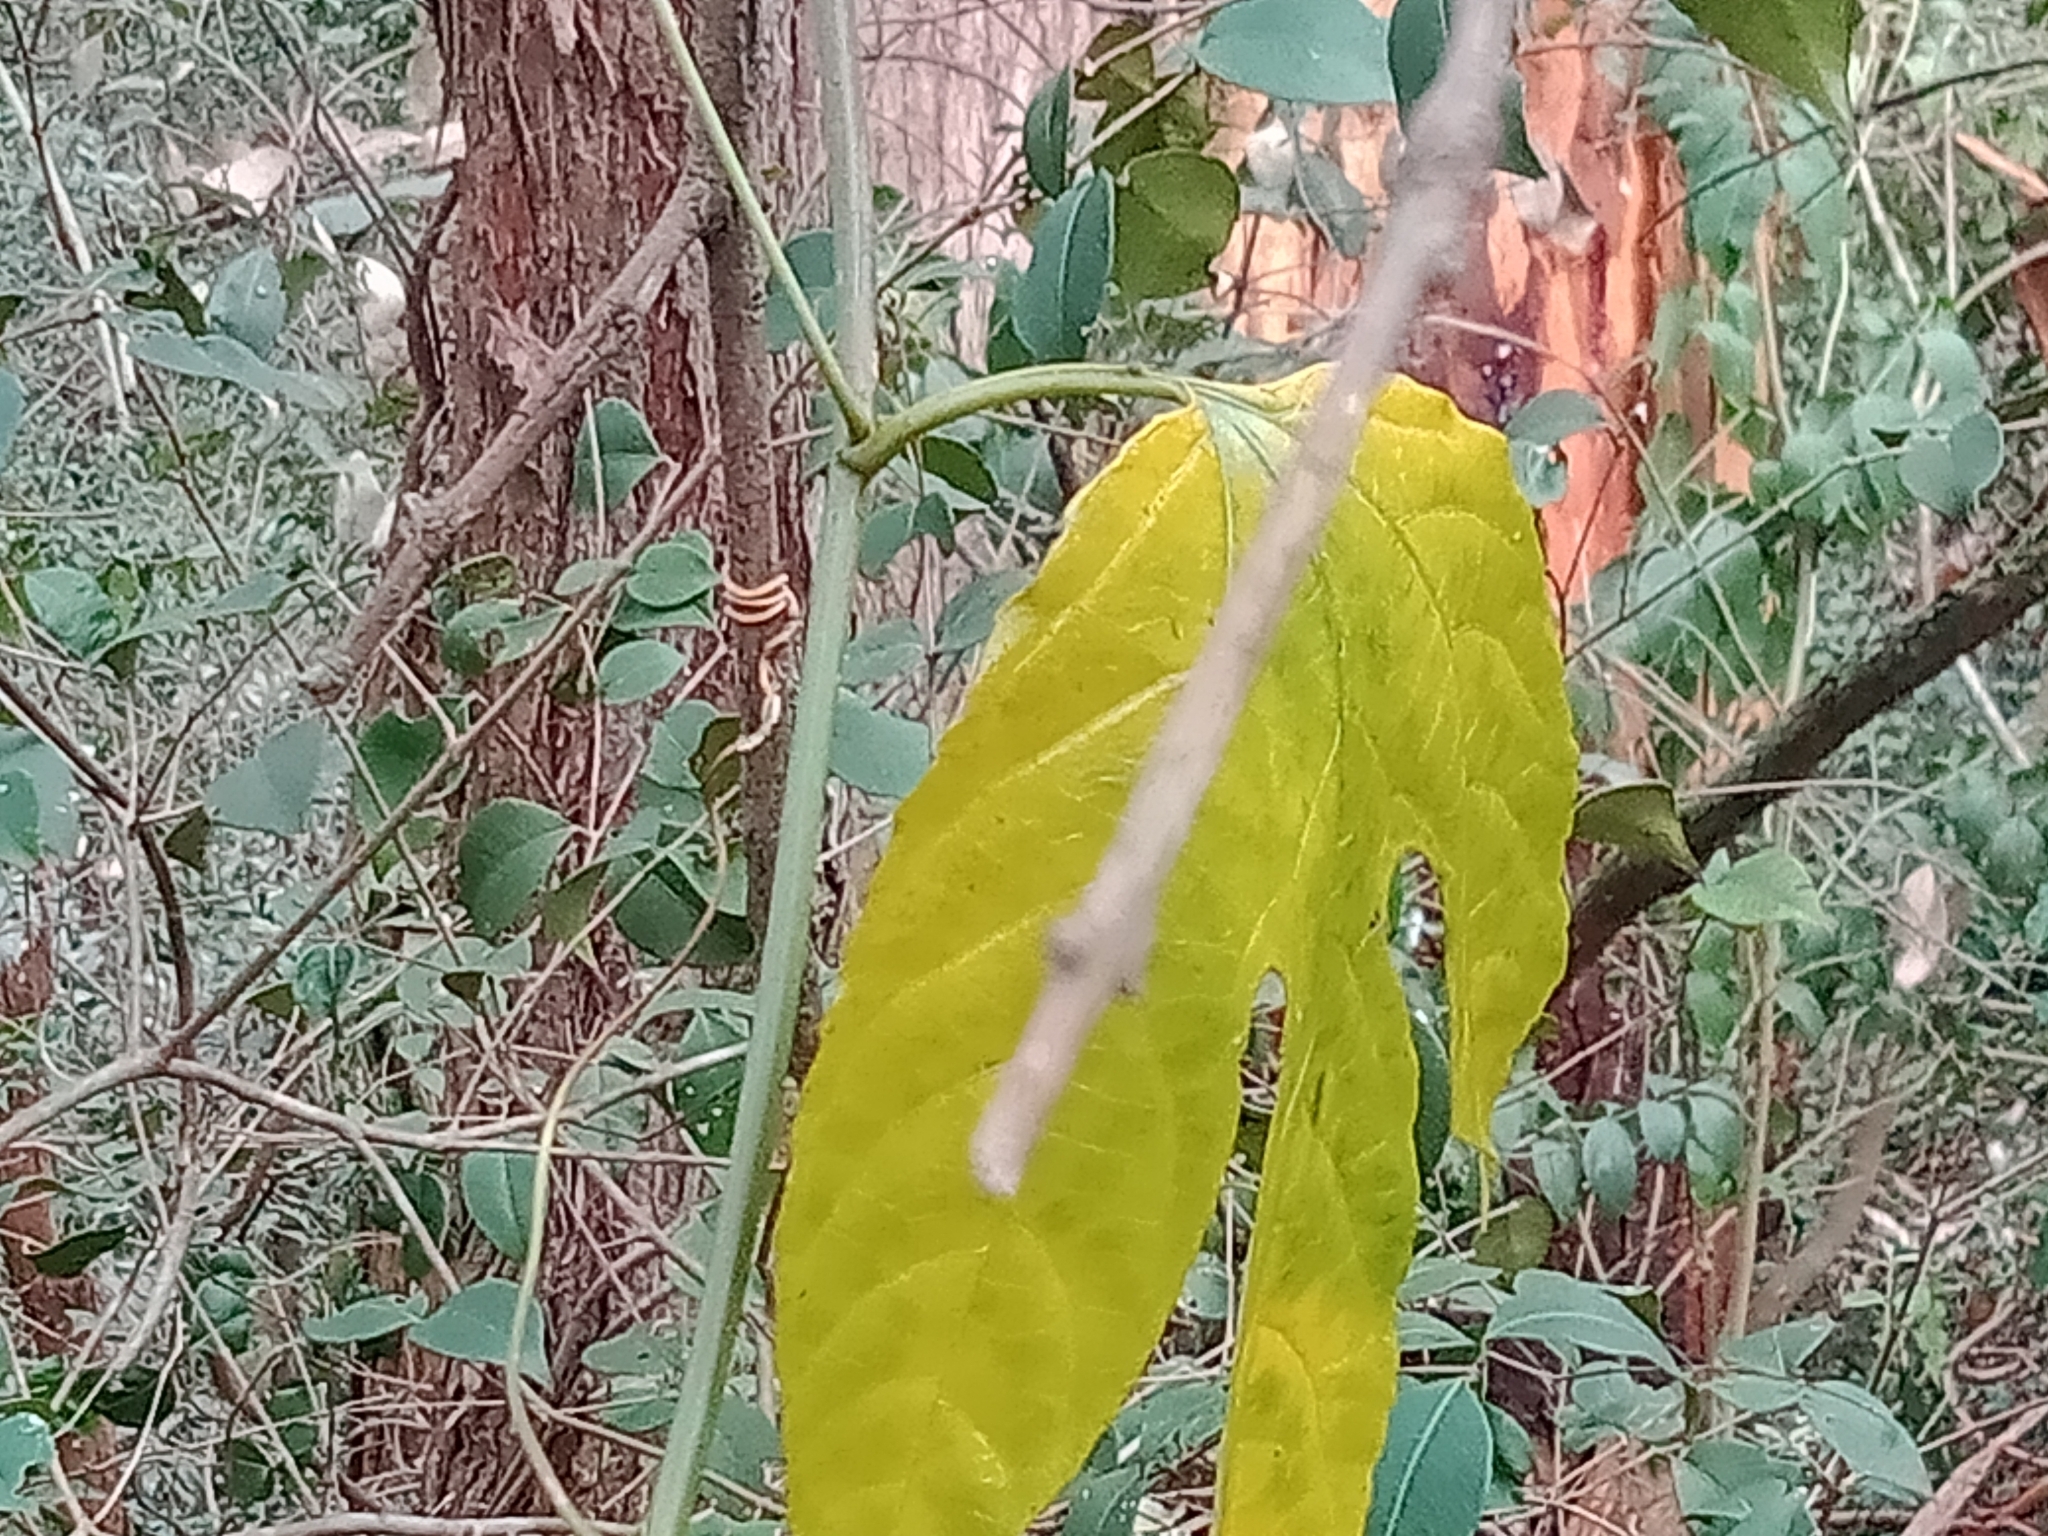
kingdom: Plantae
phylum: Tracheophyta
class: Magnoliopsida
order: Malpighiales
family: Passifloraceae
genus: Passiflora
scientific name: Passiflora edulis
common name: Purple granadilla
